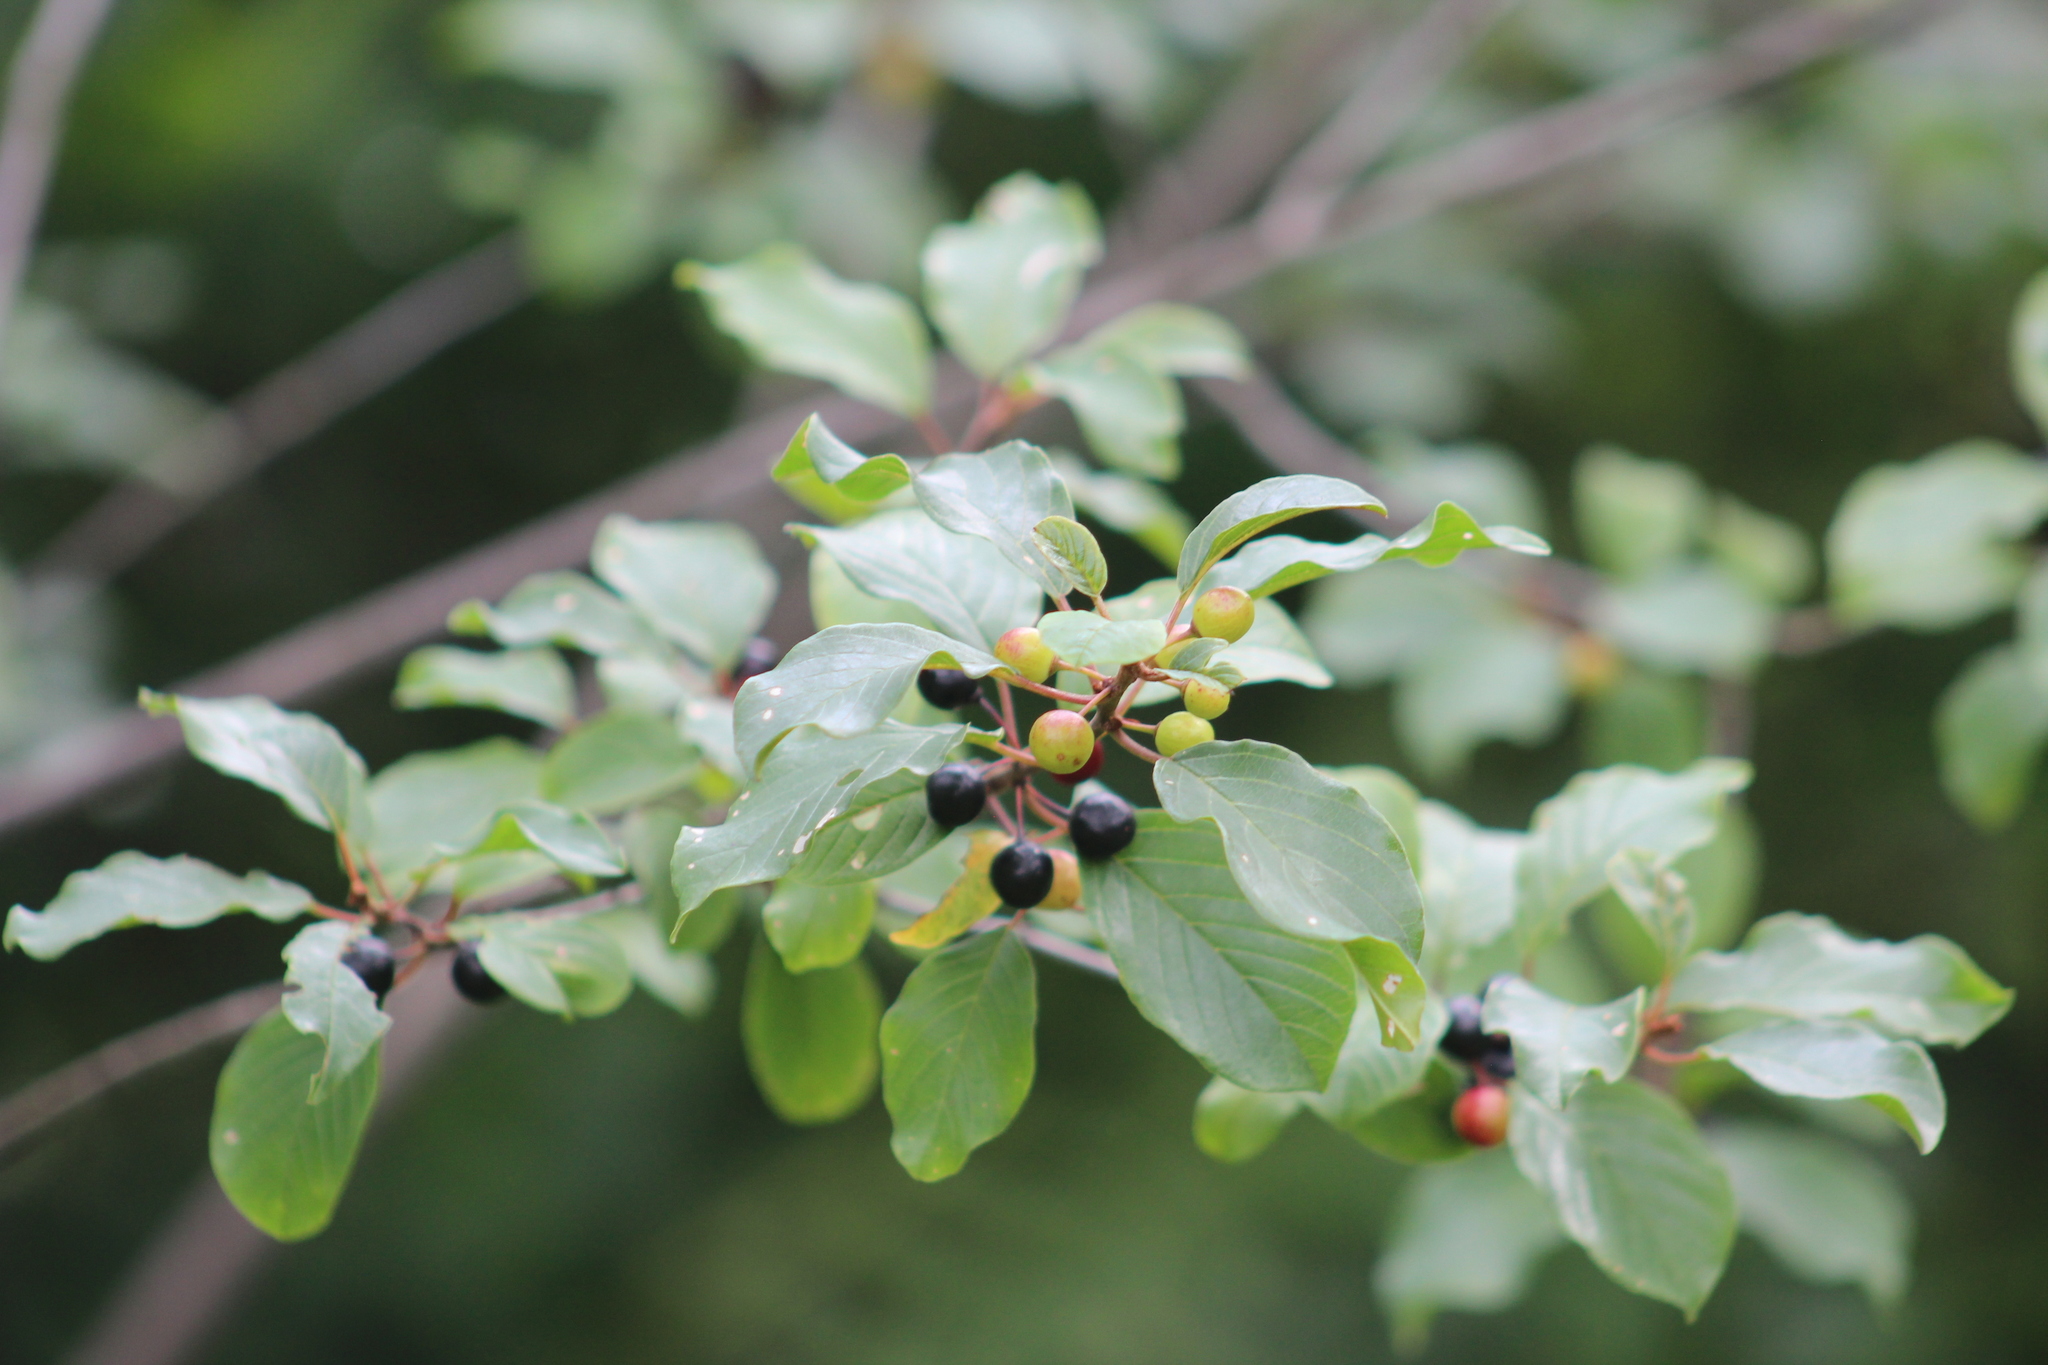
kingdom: Plantae
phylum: Tracheophyta
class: Magnoliopsida
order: Rosales
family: Rhamnaceae
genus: Frangula
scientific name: Frangula alnus
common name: Alder buckthorn
